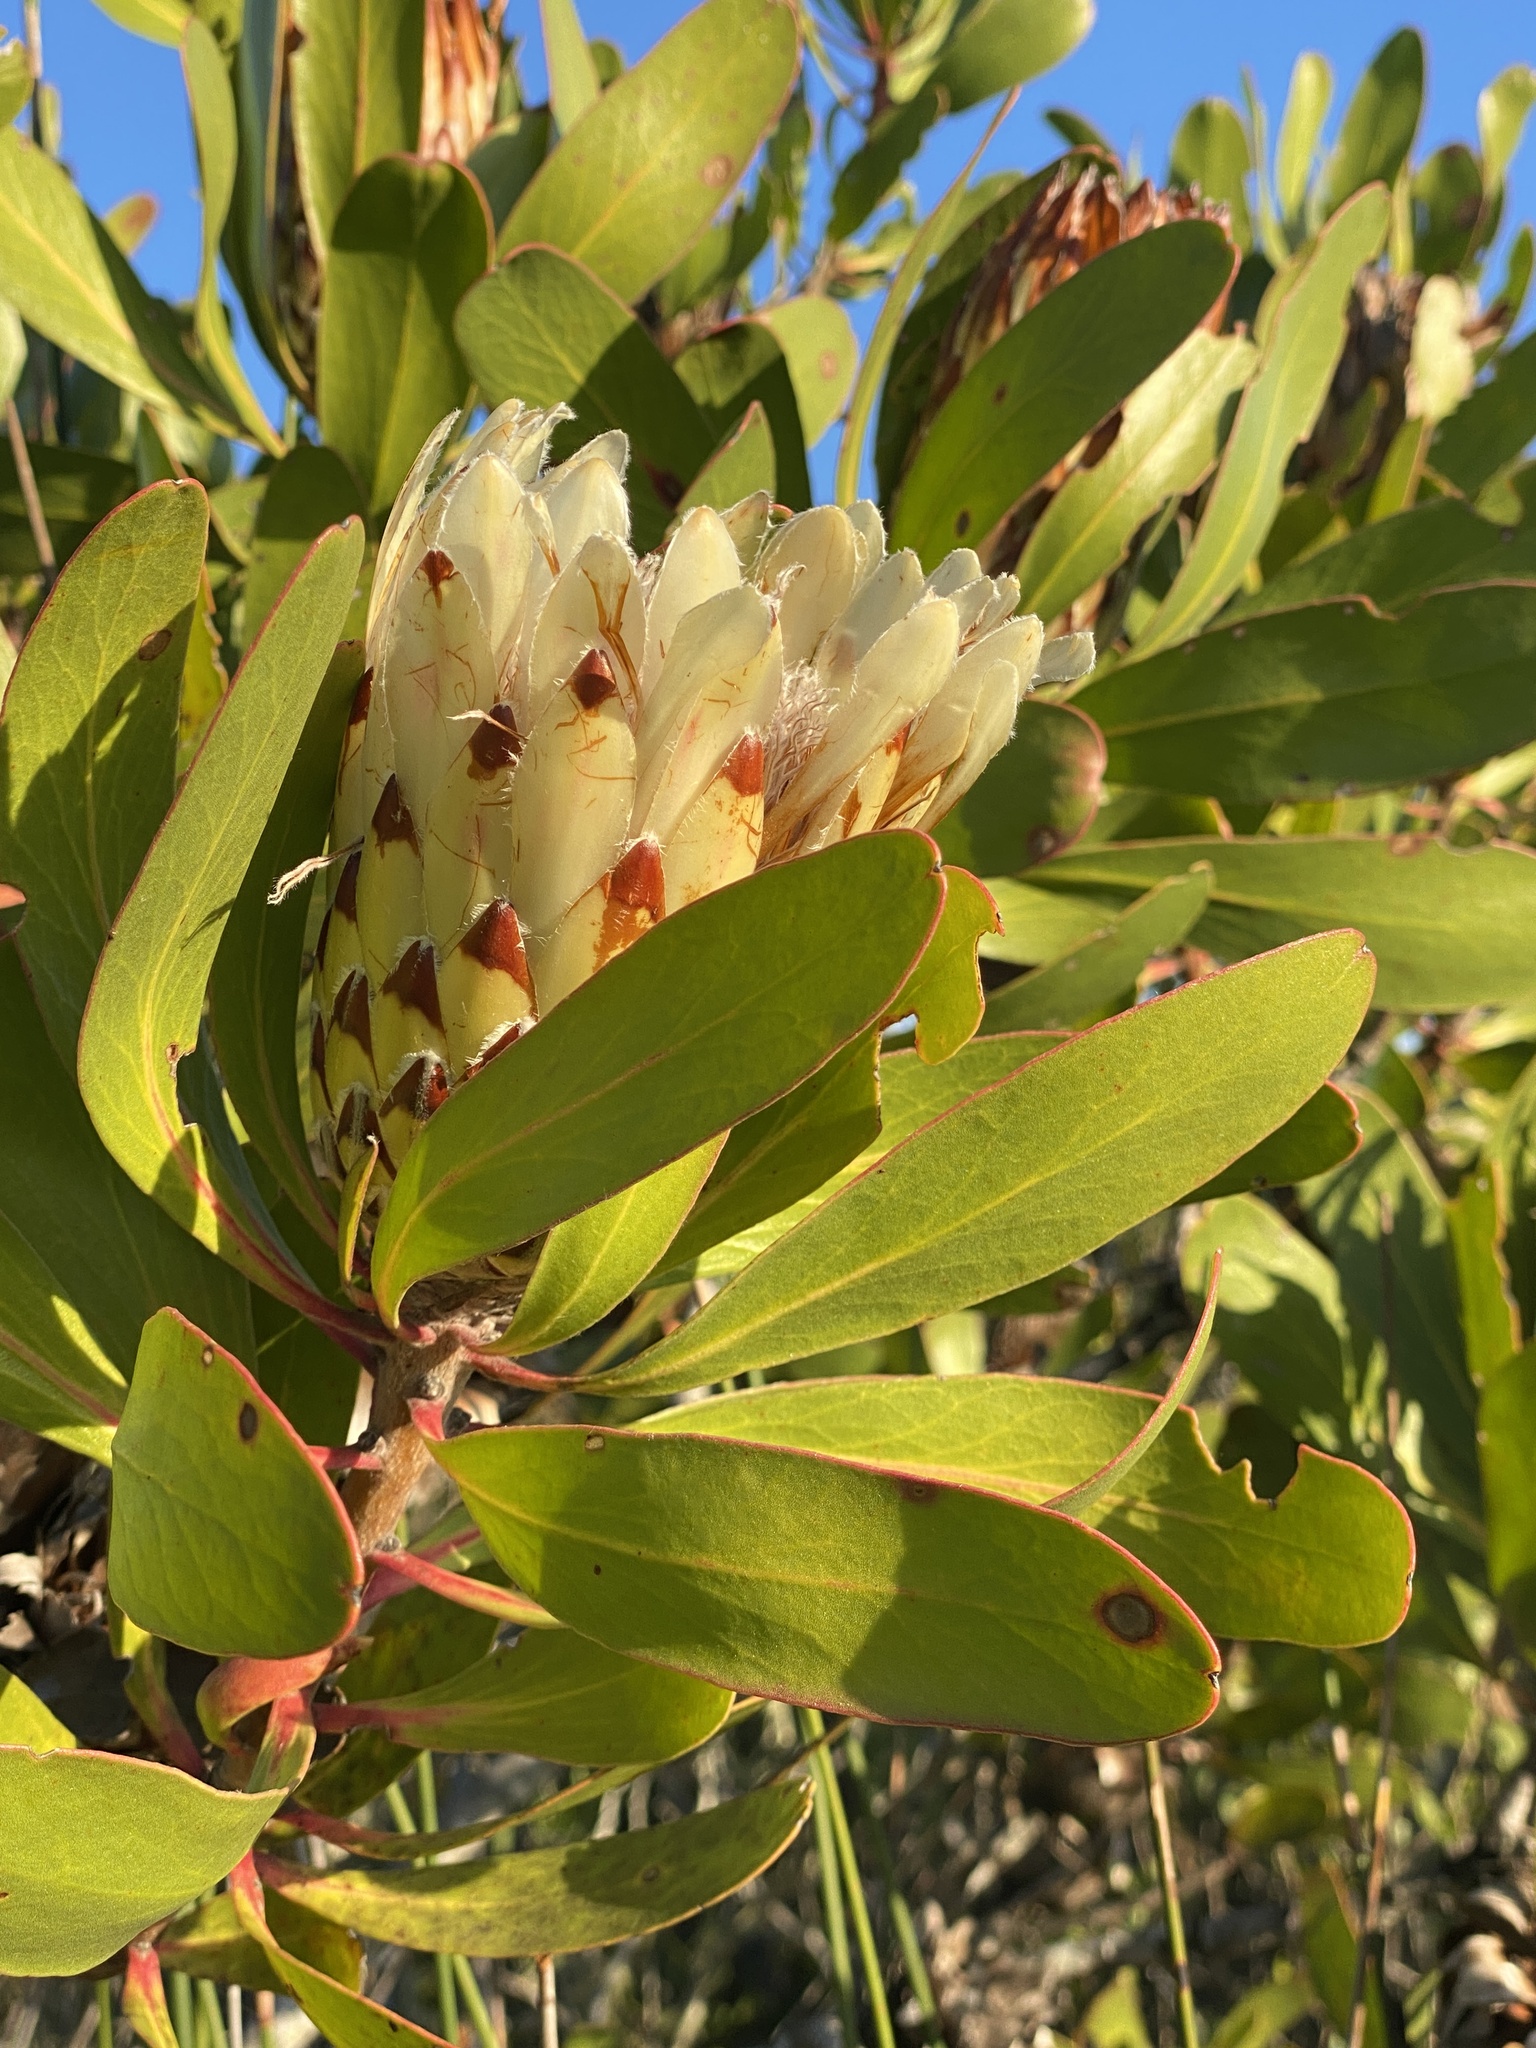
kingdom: Plantae
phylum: Tracheophyta
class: Magnoliopsida
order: Proteales
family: Proteaceae
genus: Protea
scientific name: Protea obtusifolia
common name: Bredasdorp sugarbush
